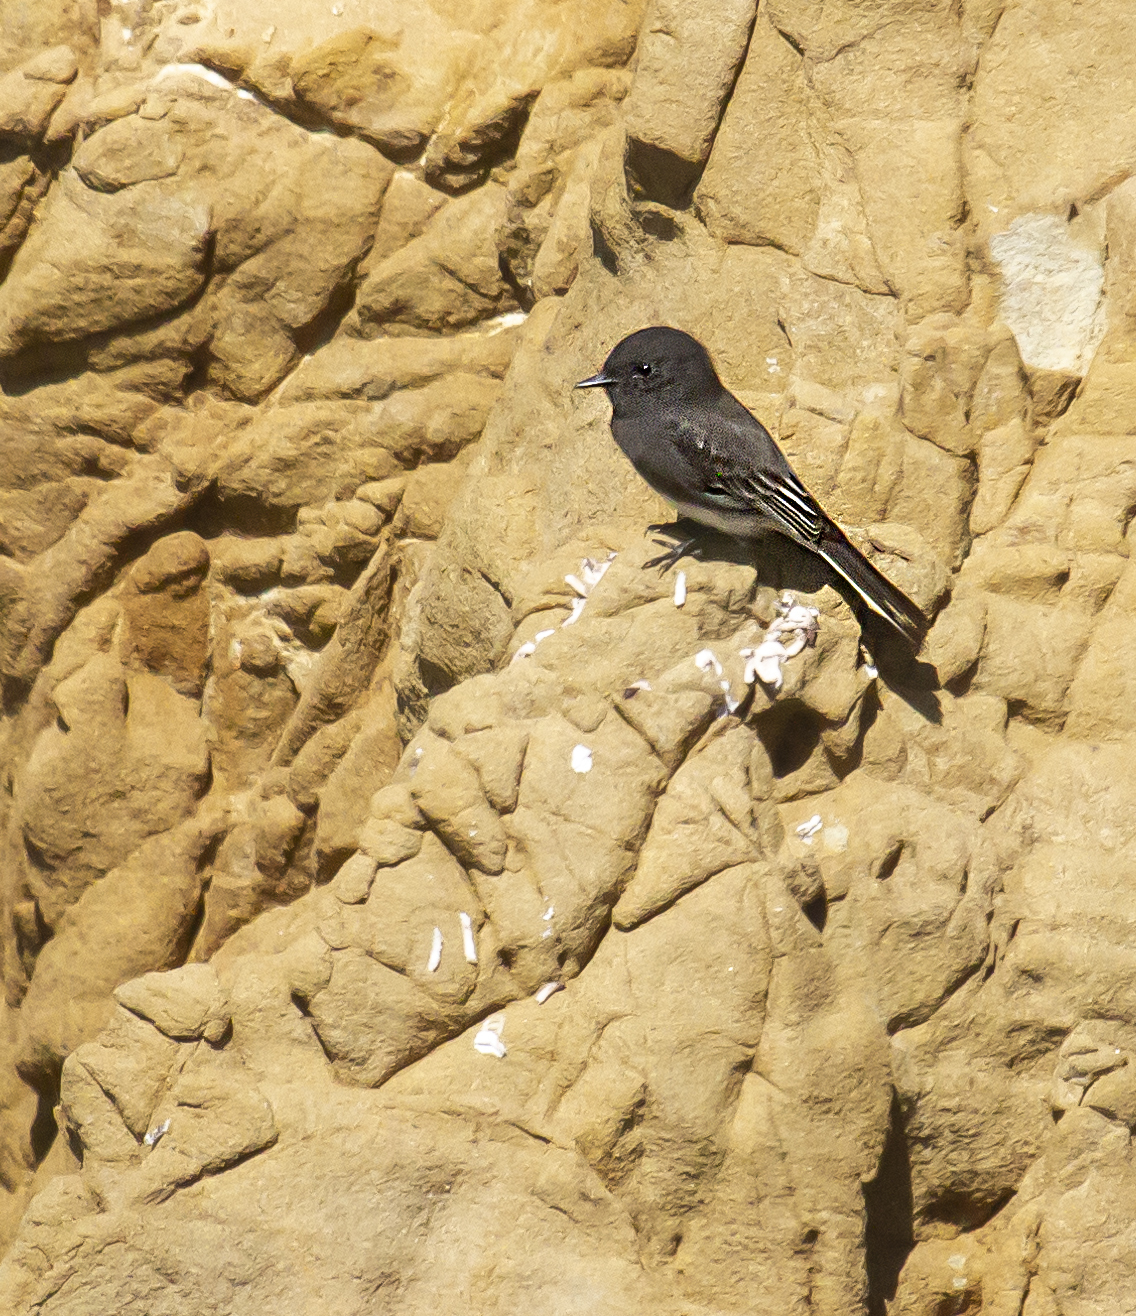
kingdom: Animalia
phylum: Chordata
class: Aves
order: Passeriformes
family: Tyrannidae
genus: Sayornis
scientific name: Sayornis nigricans
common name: Black phoebe
